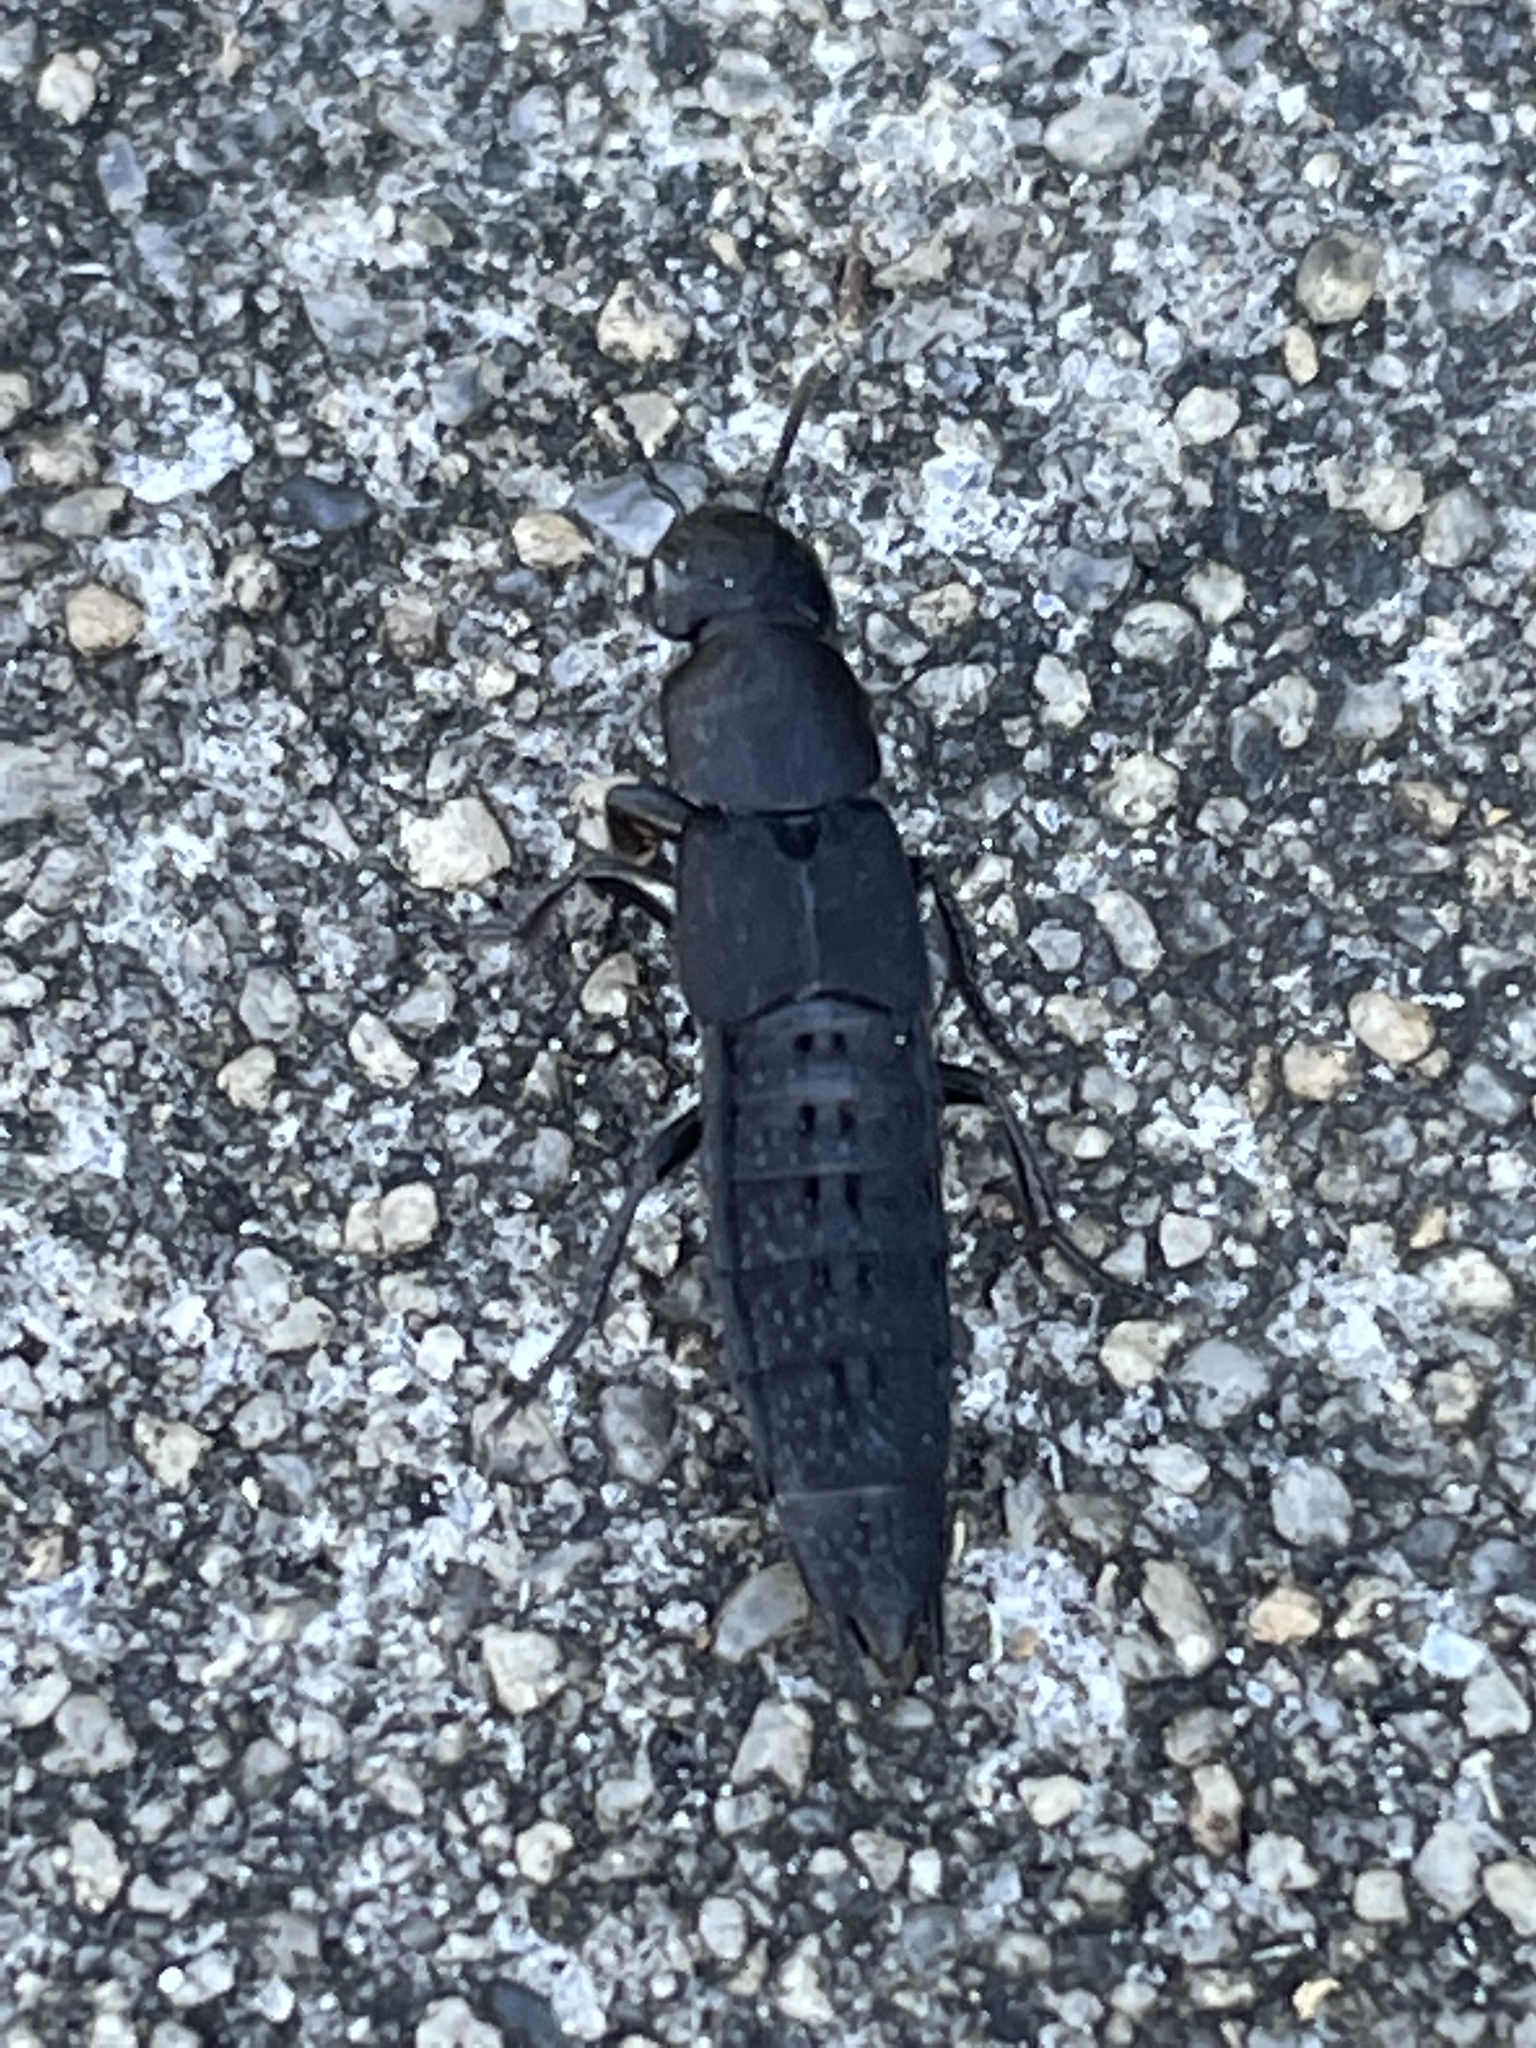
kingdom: Animalia
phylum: Arthropoda
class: Insecta
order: Coleoptera
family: Staphylinidae
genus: Platydracus
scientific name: Platydracus tomentosus
